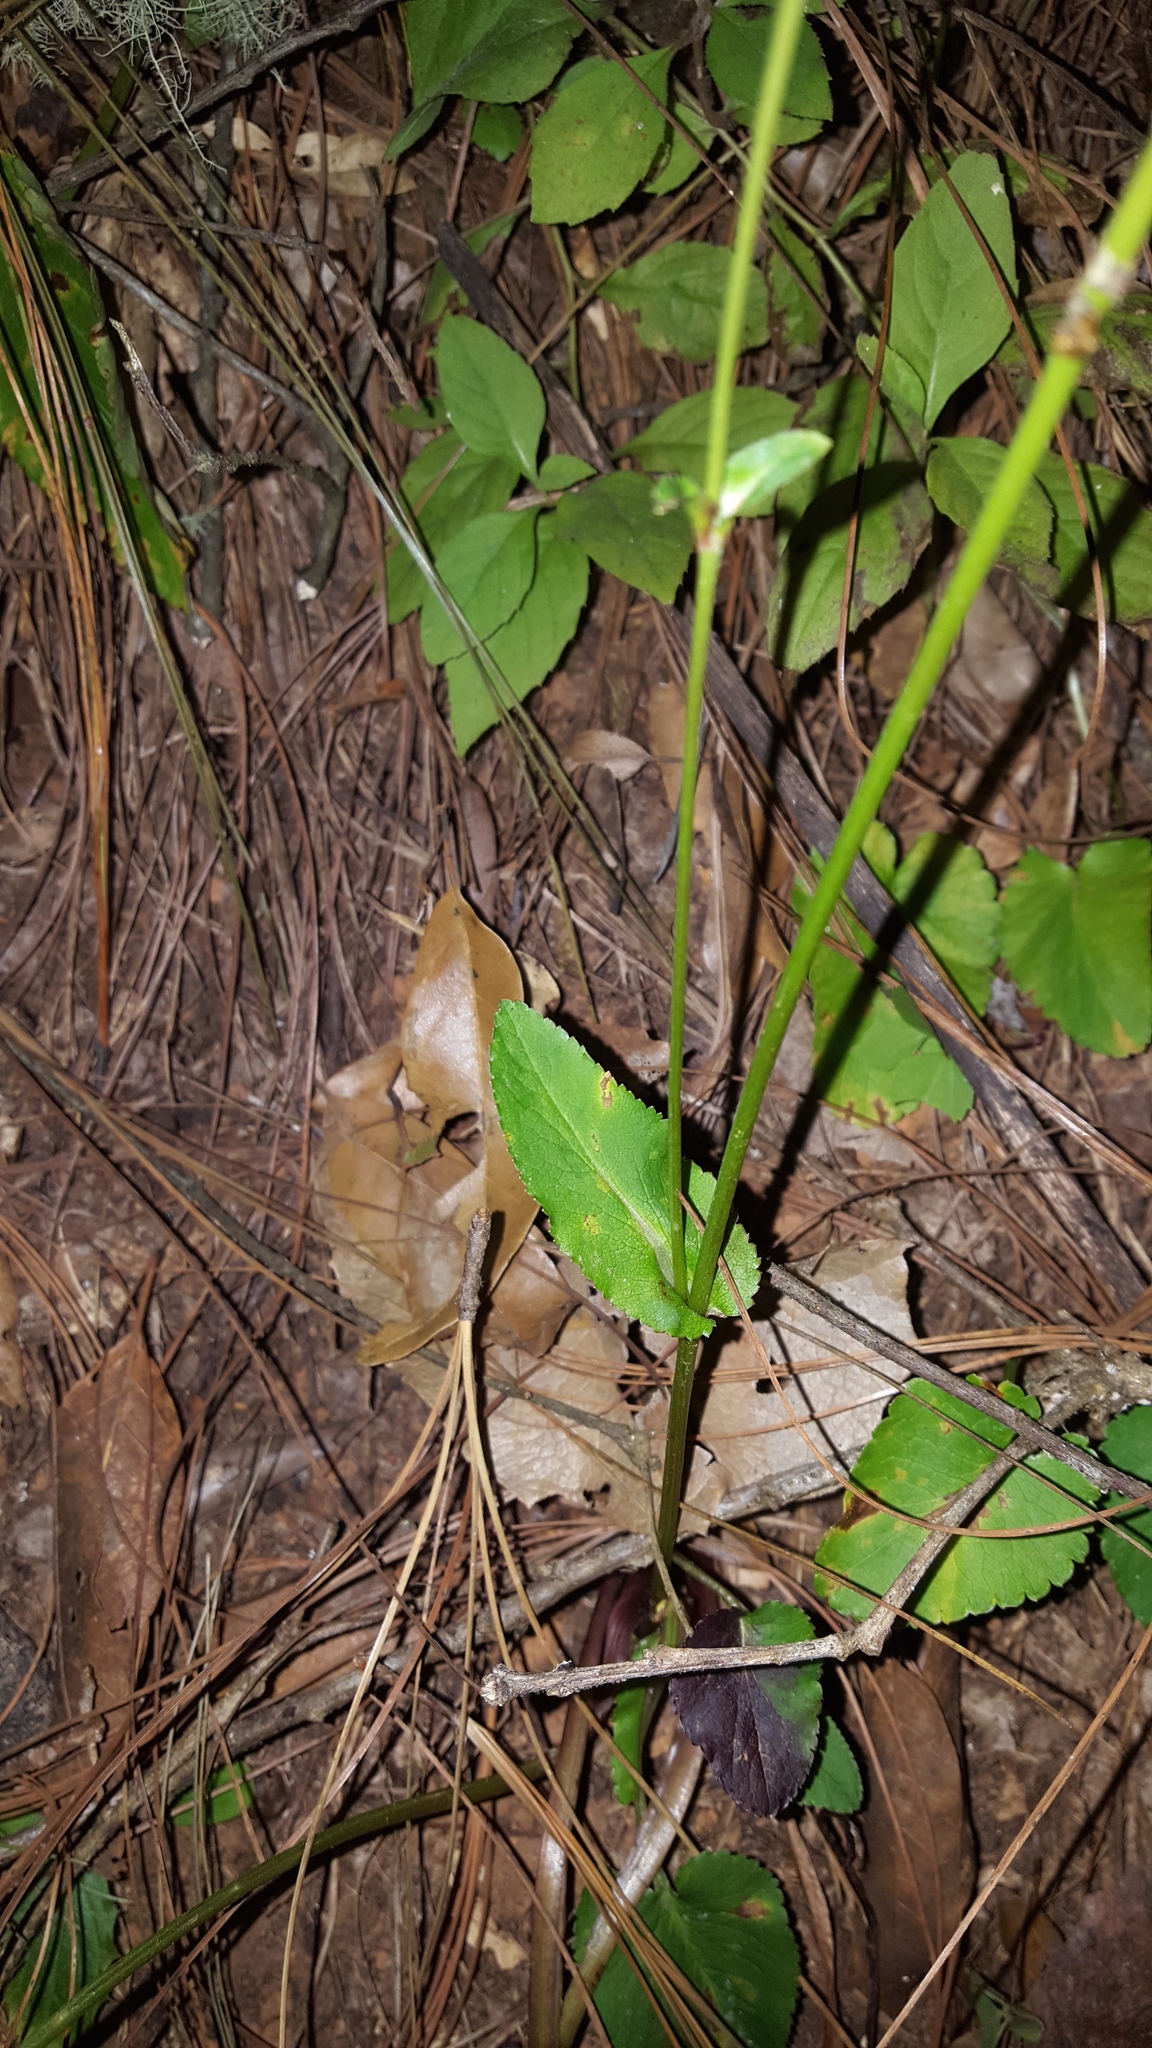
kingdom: Plantae
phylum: Tracheophyta
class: Magnoliopsida
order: Apiales
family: Apiaceae
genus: Eryngium
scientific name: Eryngium gracile
